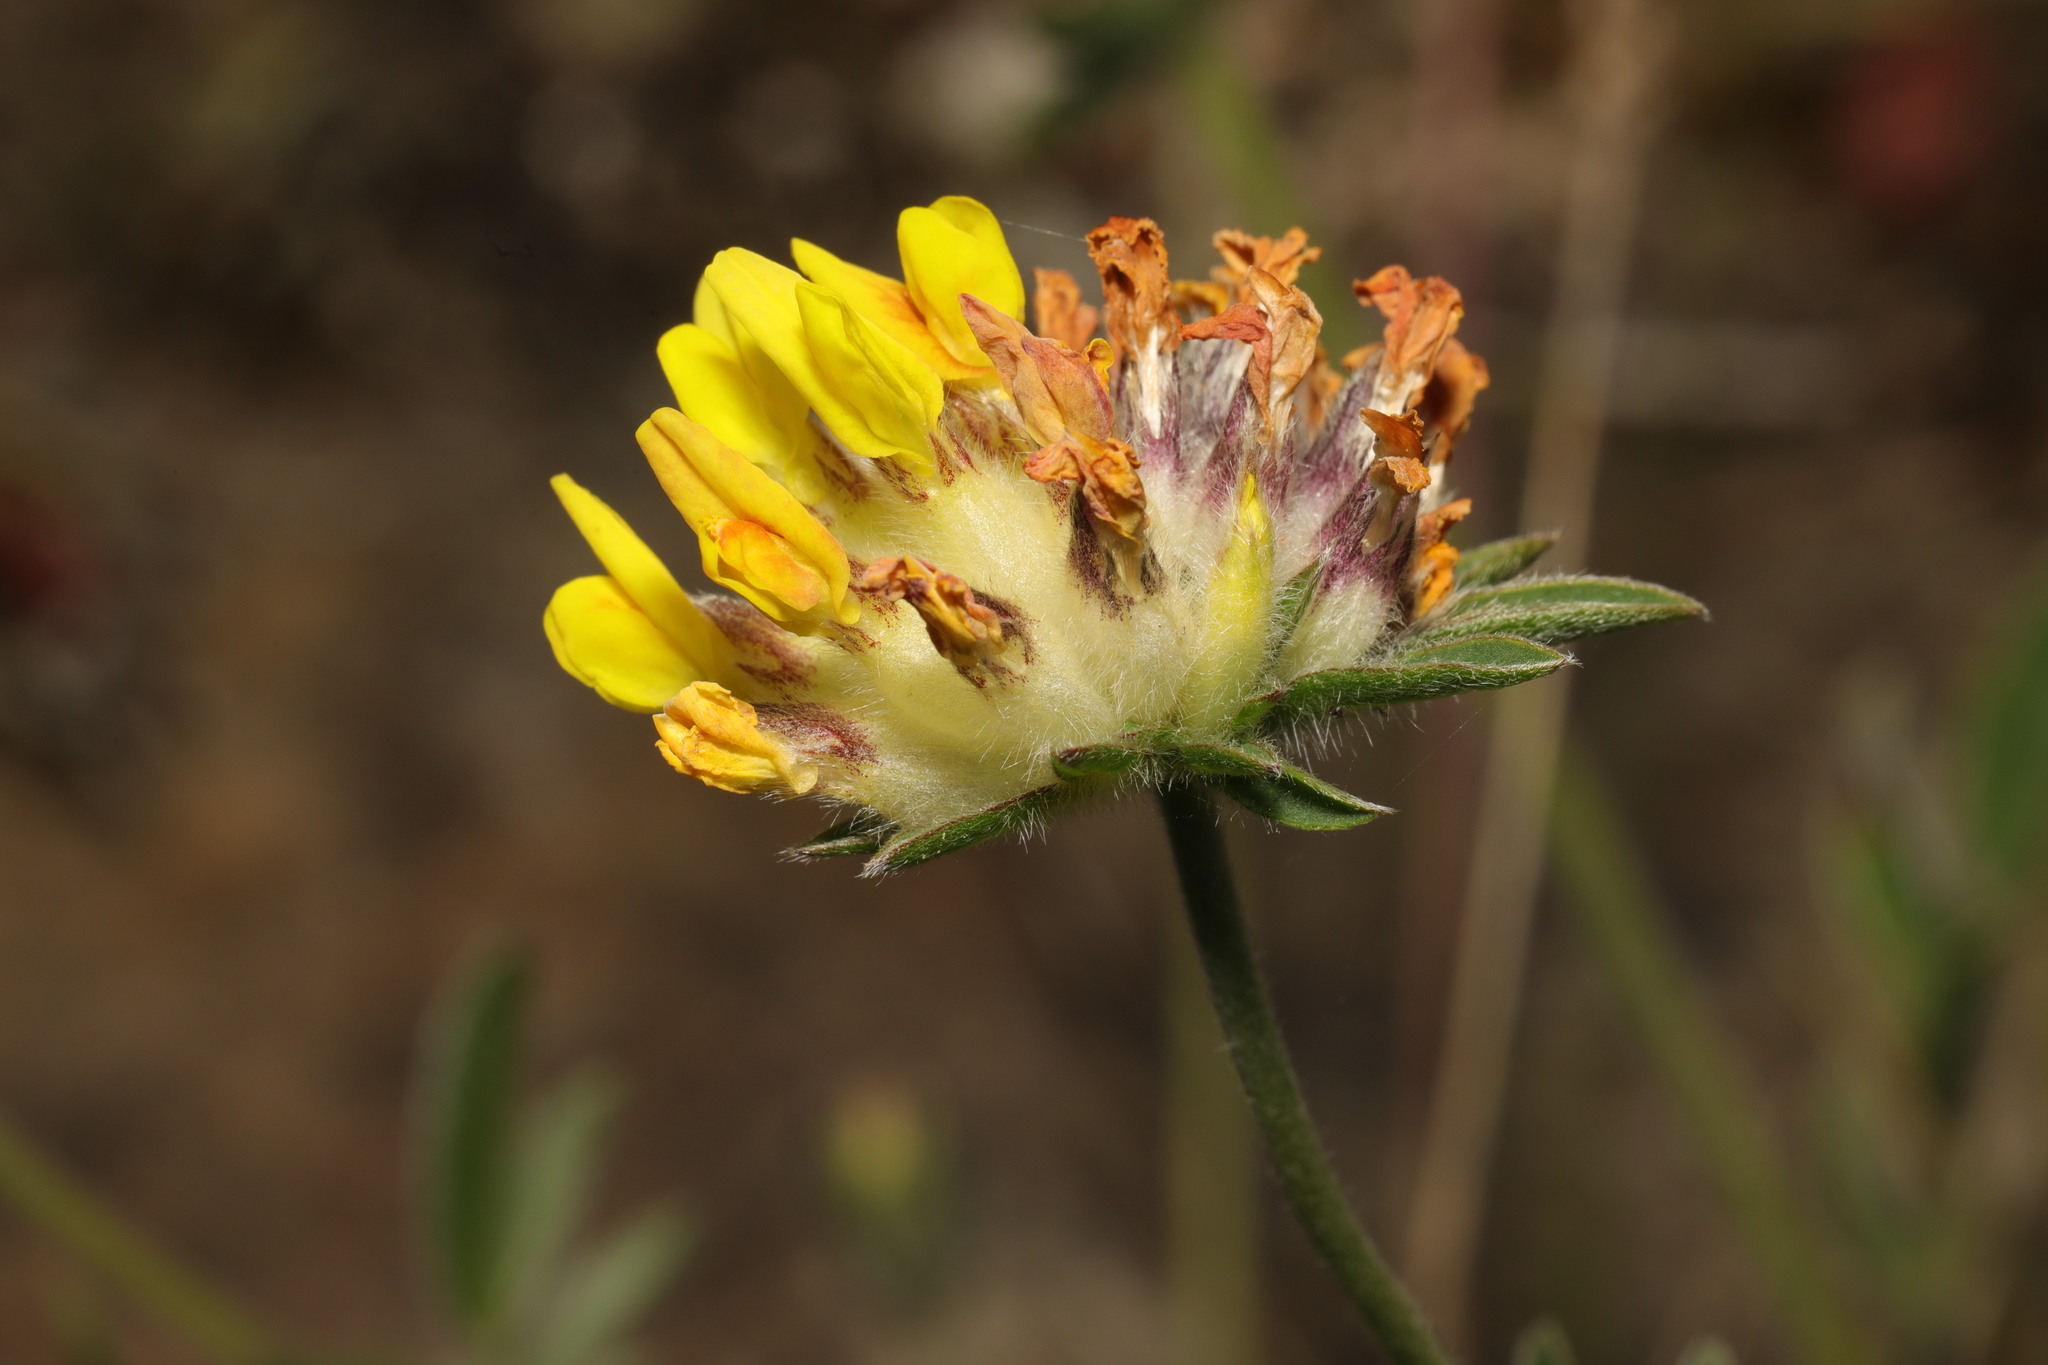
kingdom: Plantae
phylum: Tracheophyta
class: Magnoliopsida
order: Fabales
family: Fabaceae
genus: Anthyllis
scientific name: Anthyllis vulneraria
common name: Kidney vetch
